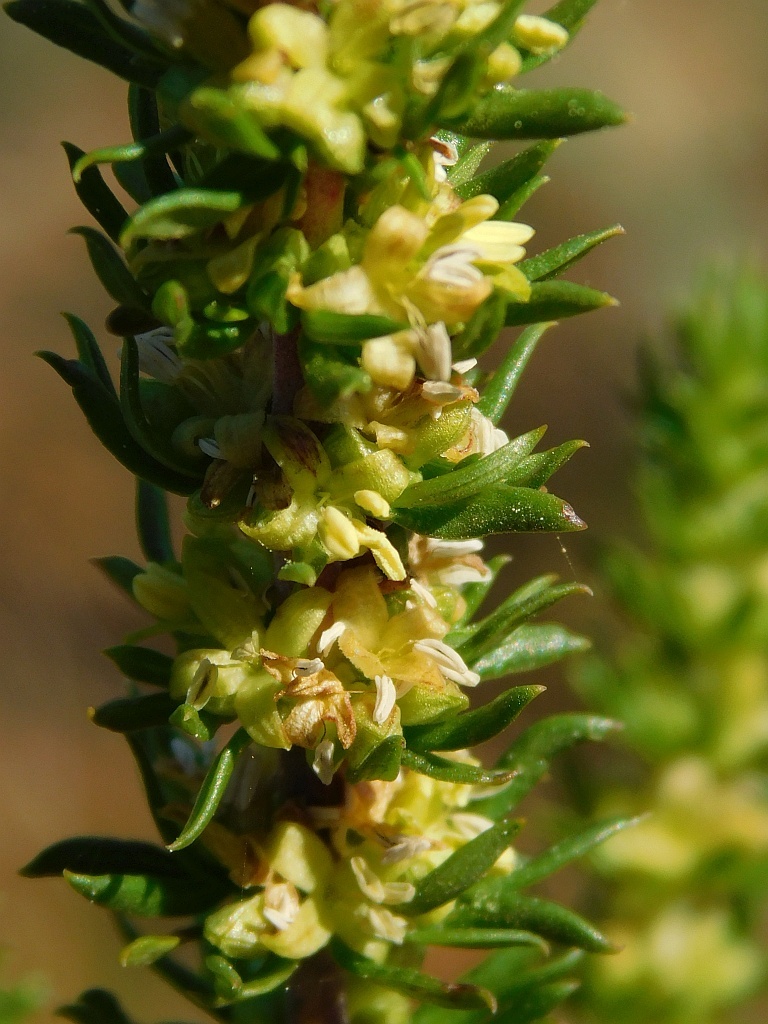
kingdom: Plantae
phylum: Tracheophyta
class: Magnoliopsida
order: Gentianales
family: Rubiaceae
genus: Anthospermum
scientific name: Anthospermum aethiopicum
